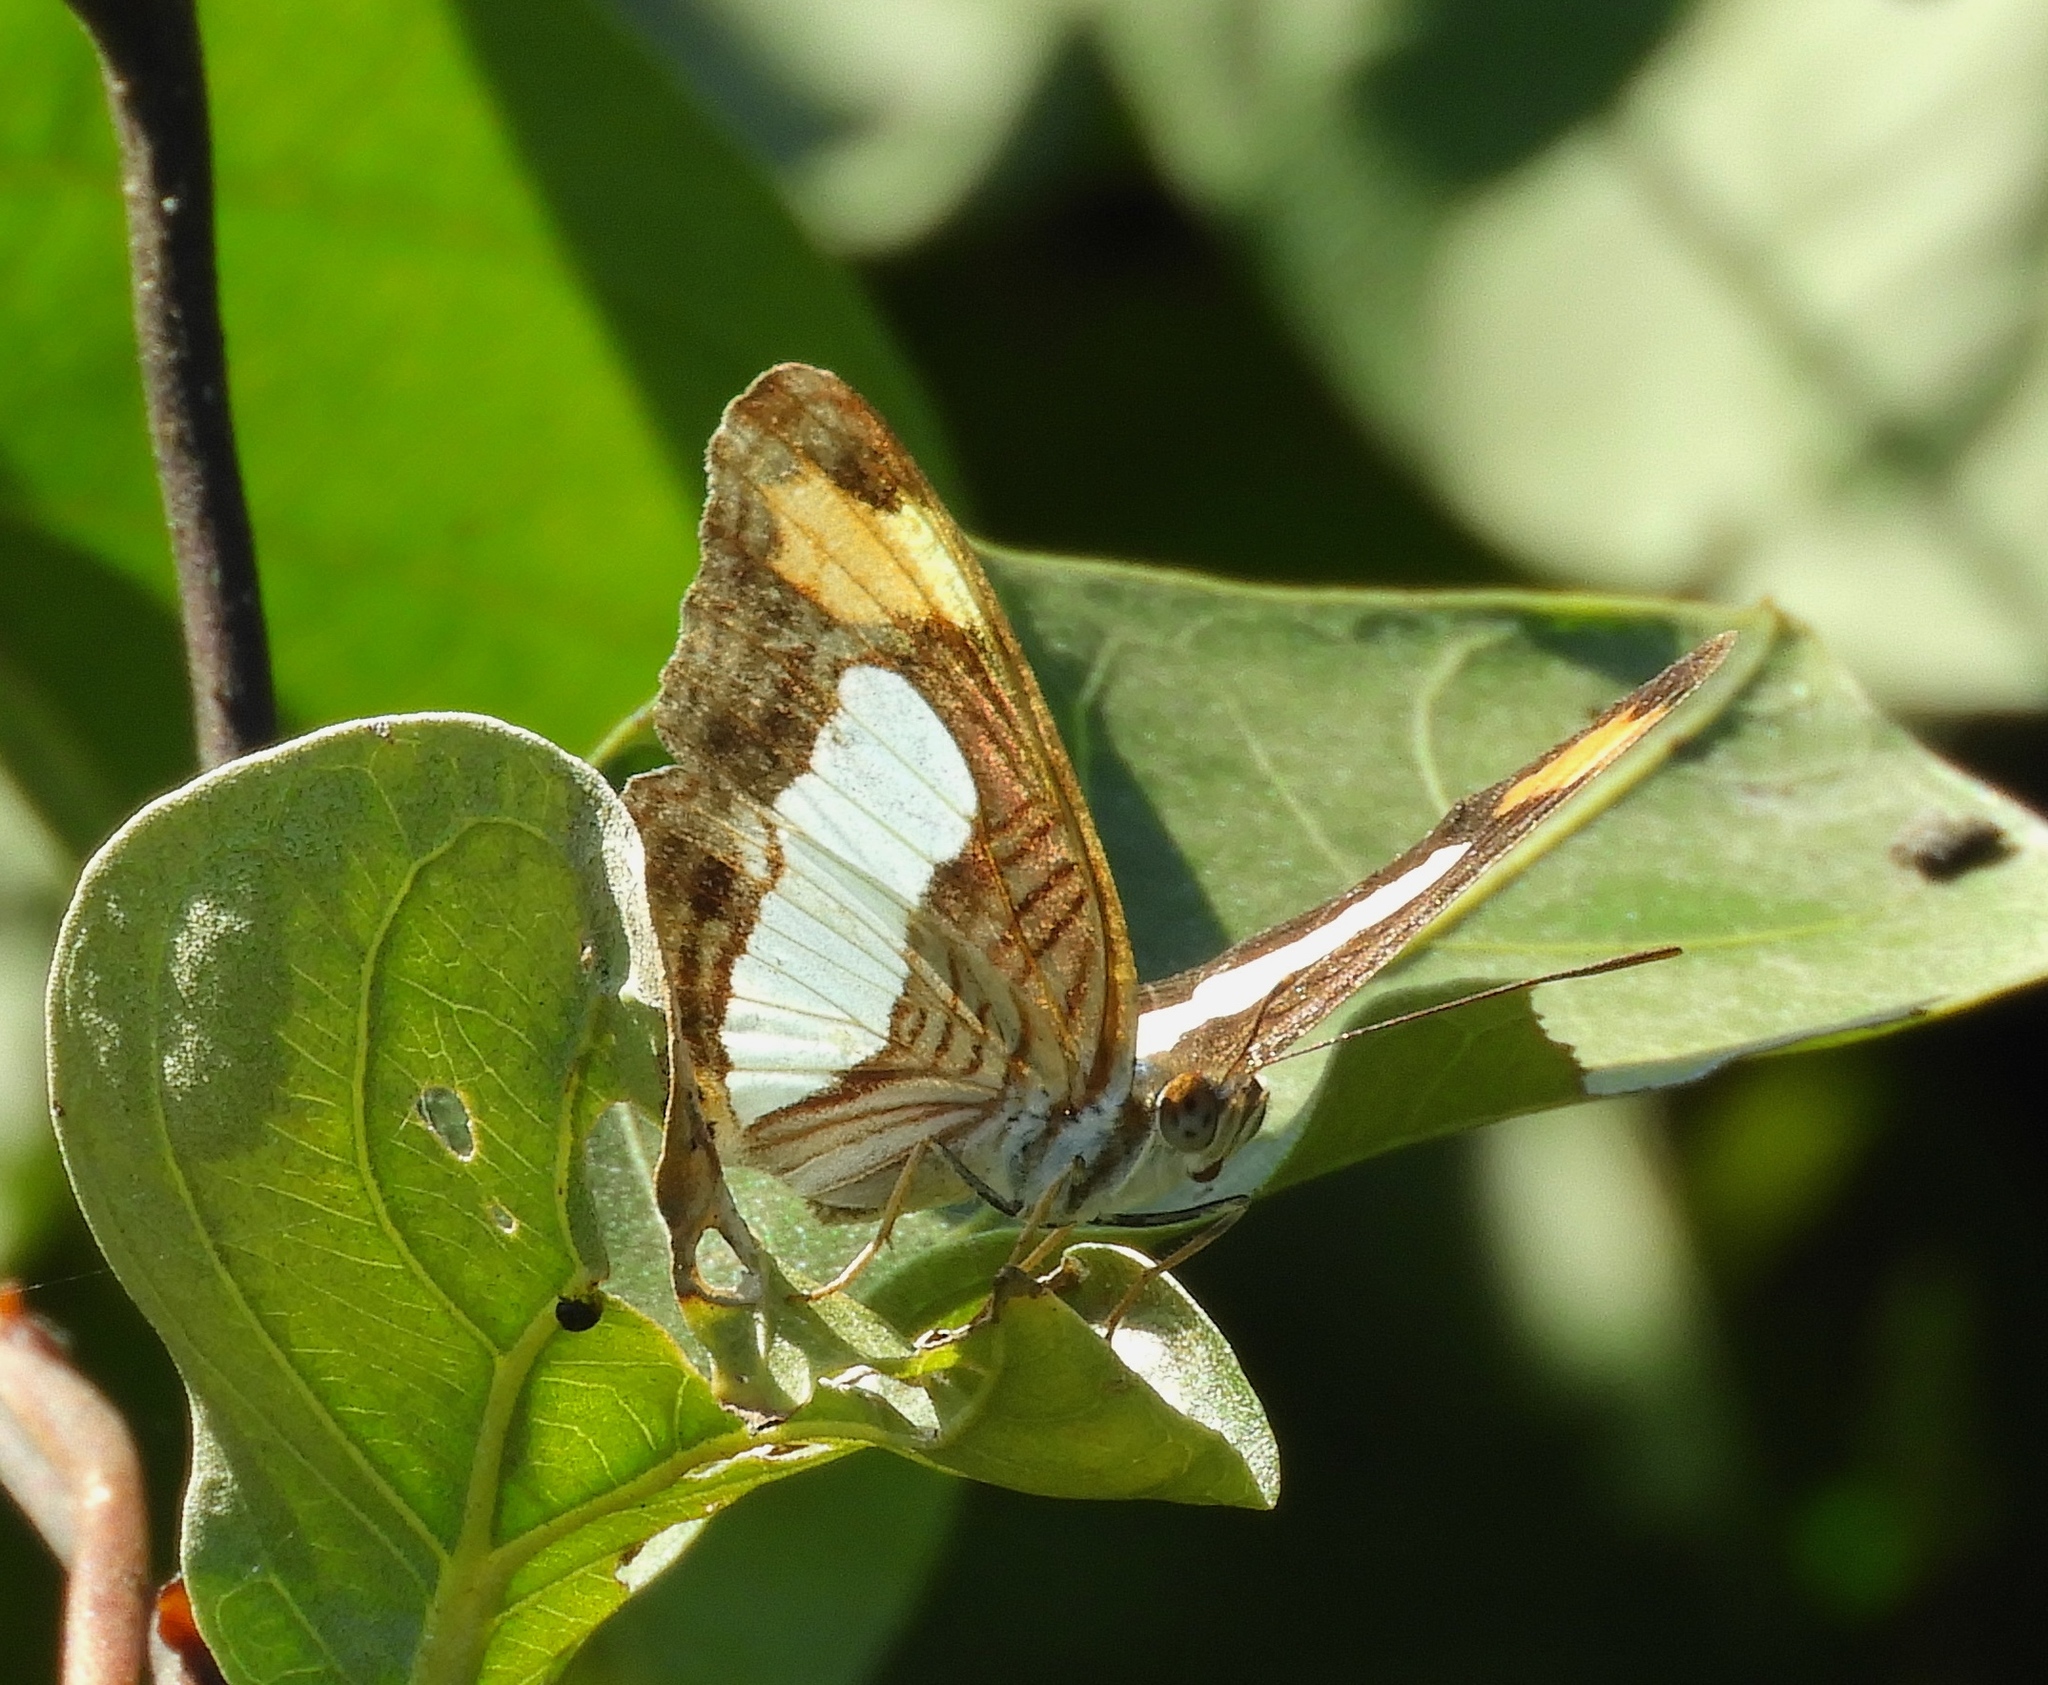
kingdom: Animalia
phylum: Arthropoda
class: Insecta
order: Lepidoptera
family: Nymphalidae
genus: Limenitis
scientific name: Limenitis iphiclus
